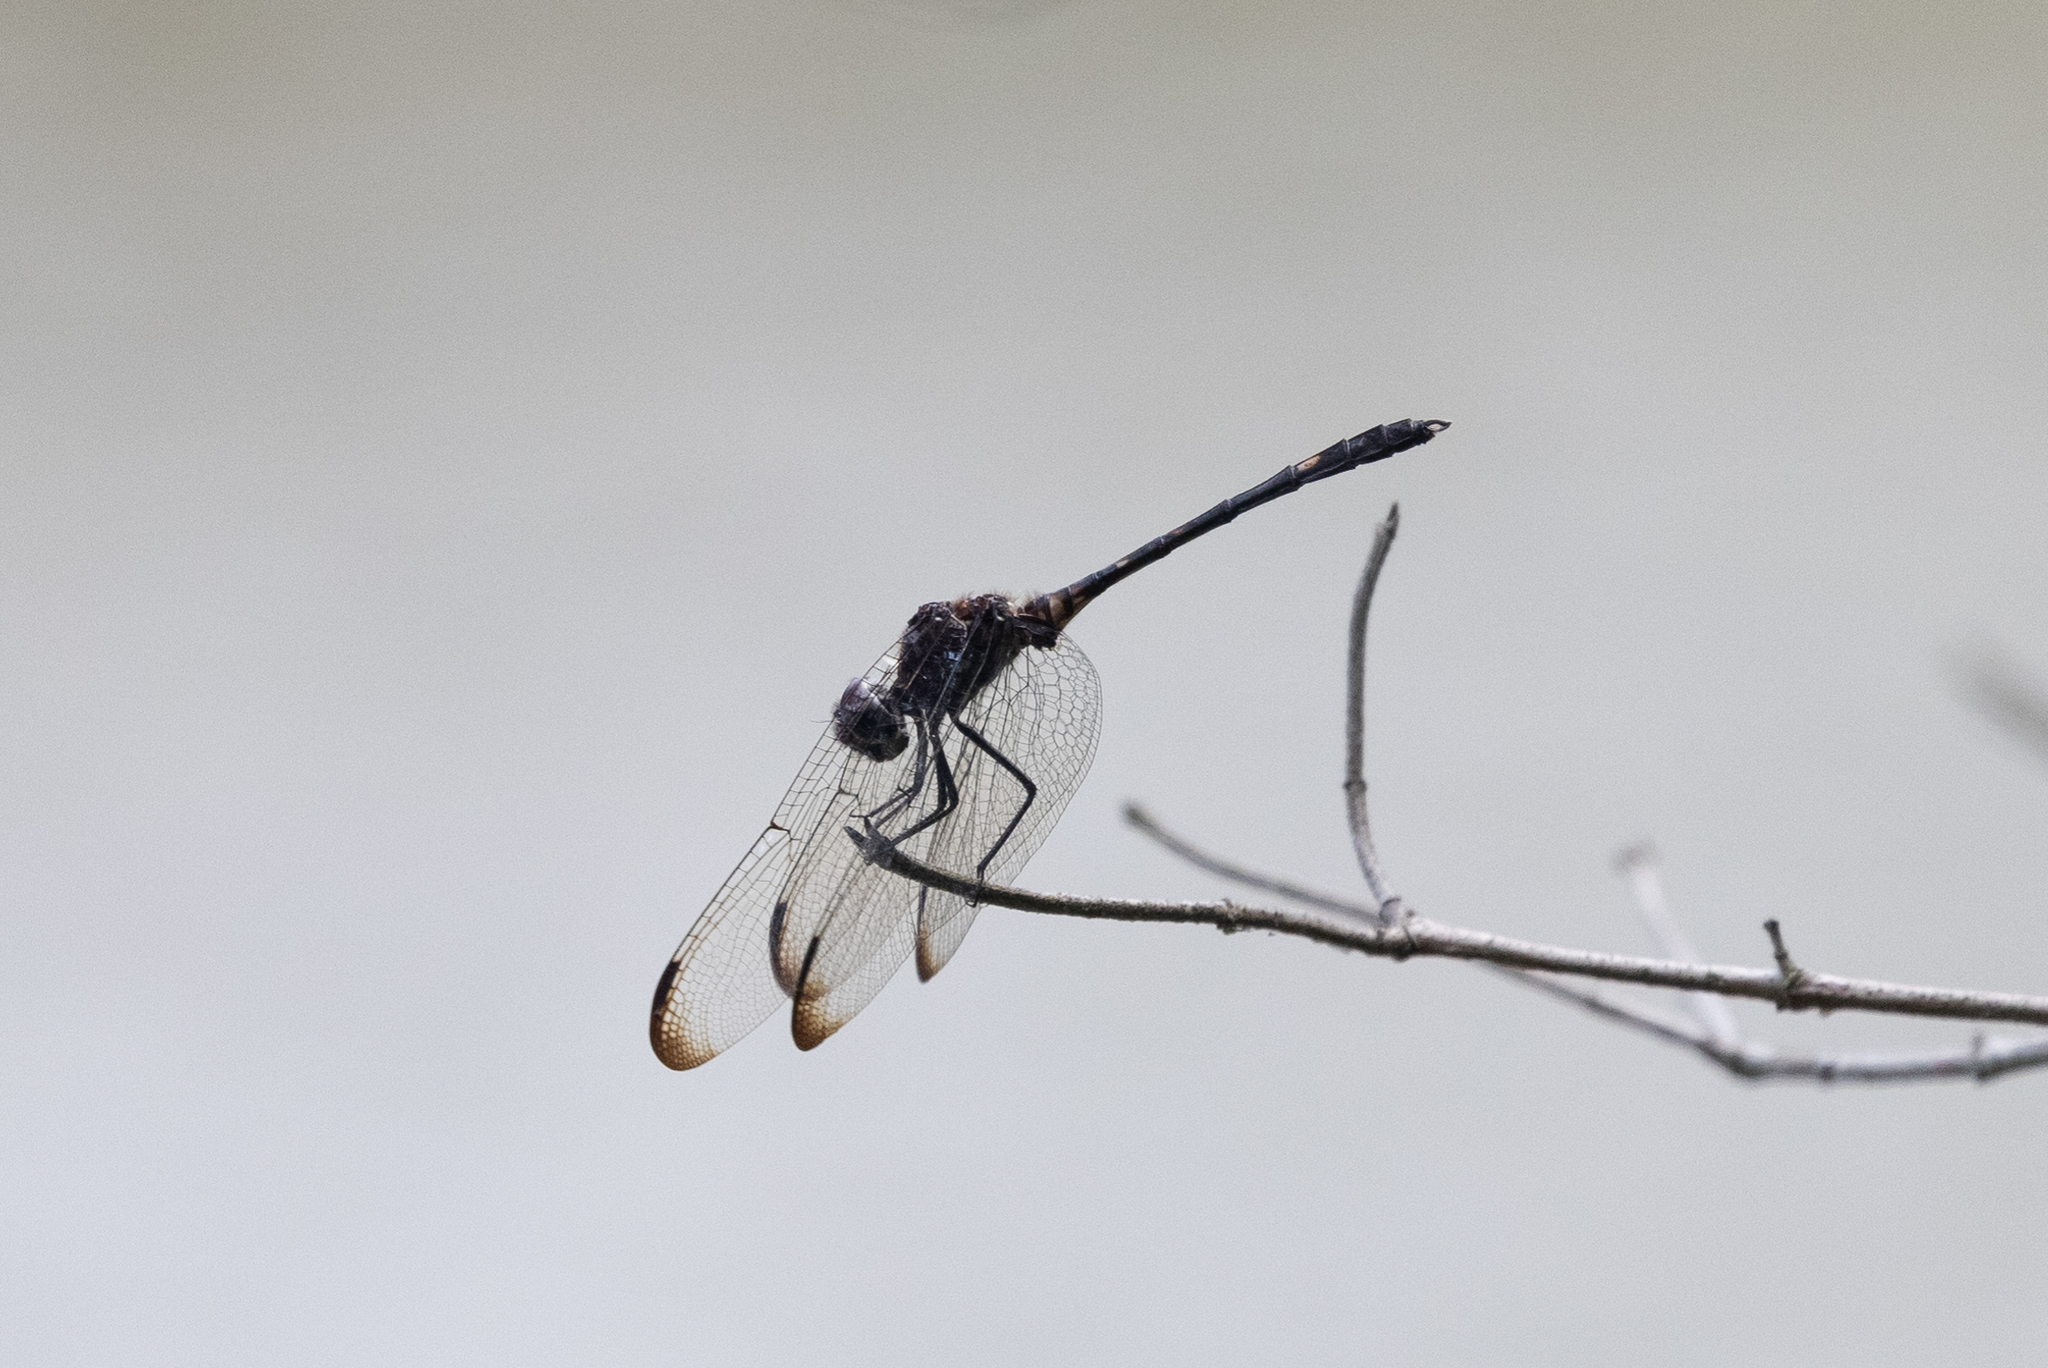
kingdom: Animalia
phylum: Arthropoda
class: Insecta
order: Odonata
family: Libellulidae
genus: Dythemis
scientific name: Dythemis velox
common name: Swift setwing
